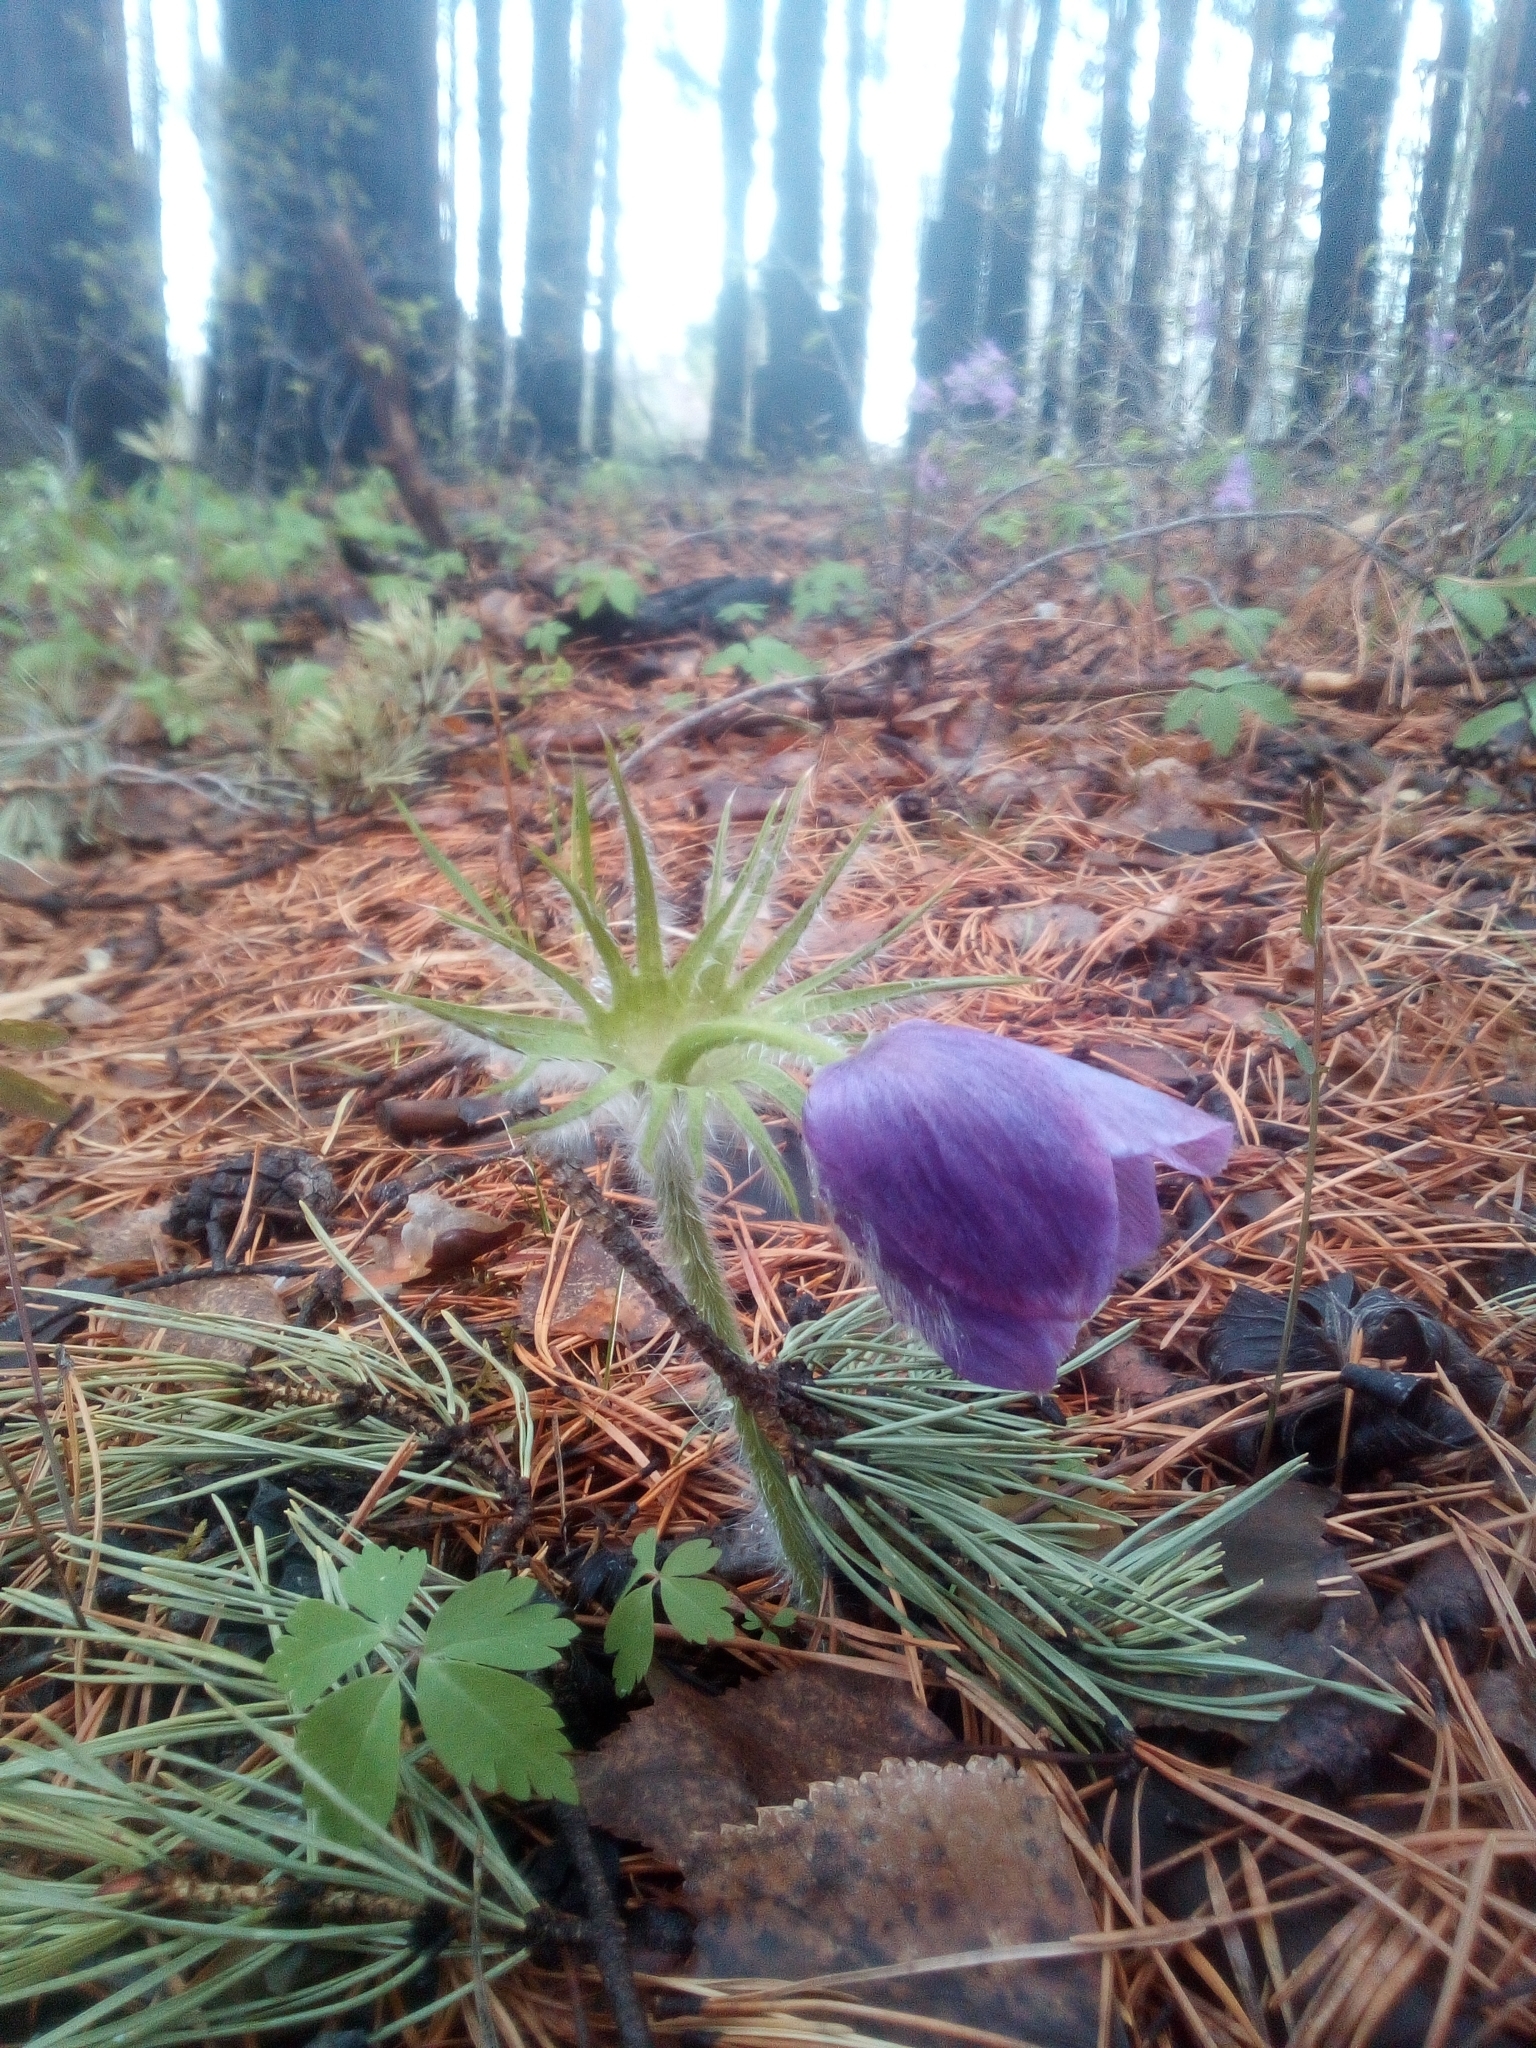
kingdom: Plantae
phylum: Tracheophyta
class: Magnoliopsida
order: Ranunculales
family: Ranunculaceae
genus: Pulsatilla
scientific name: Pulsatilla patens
